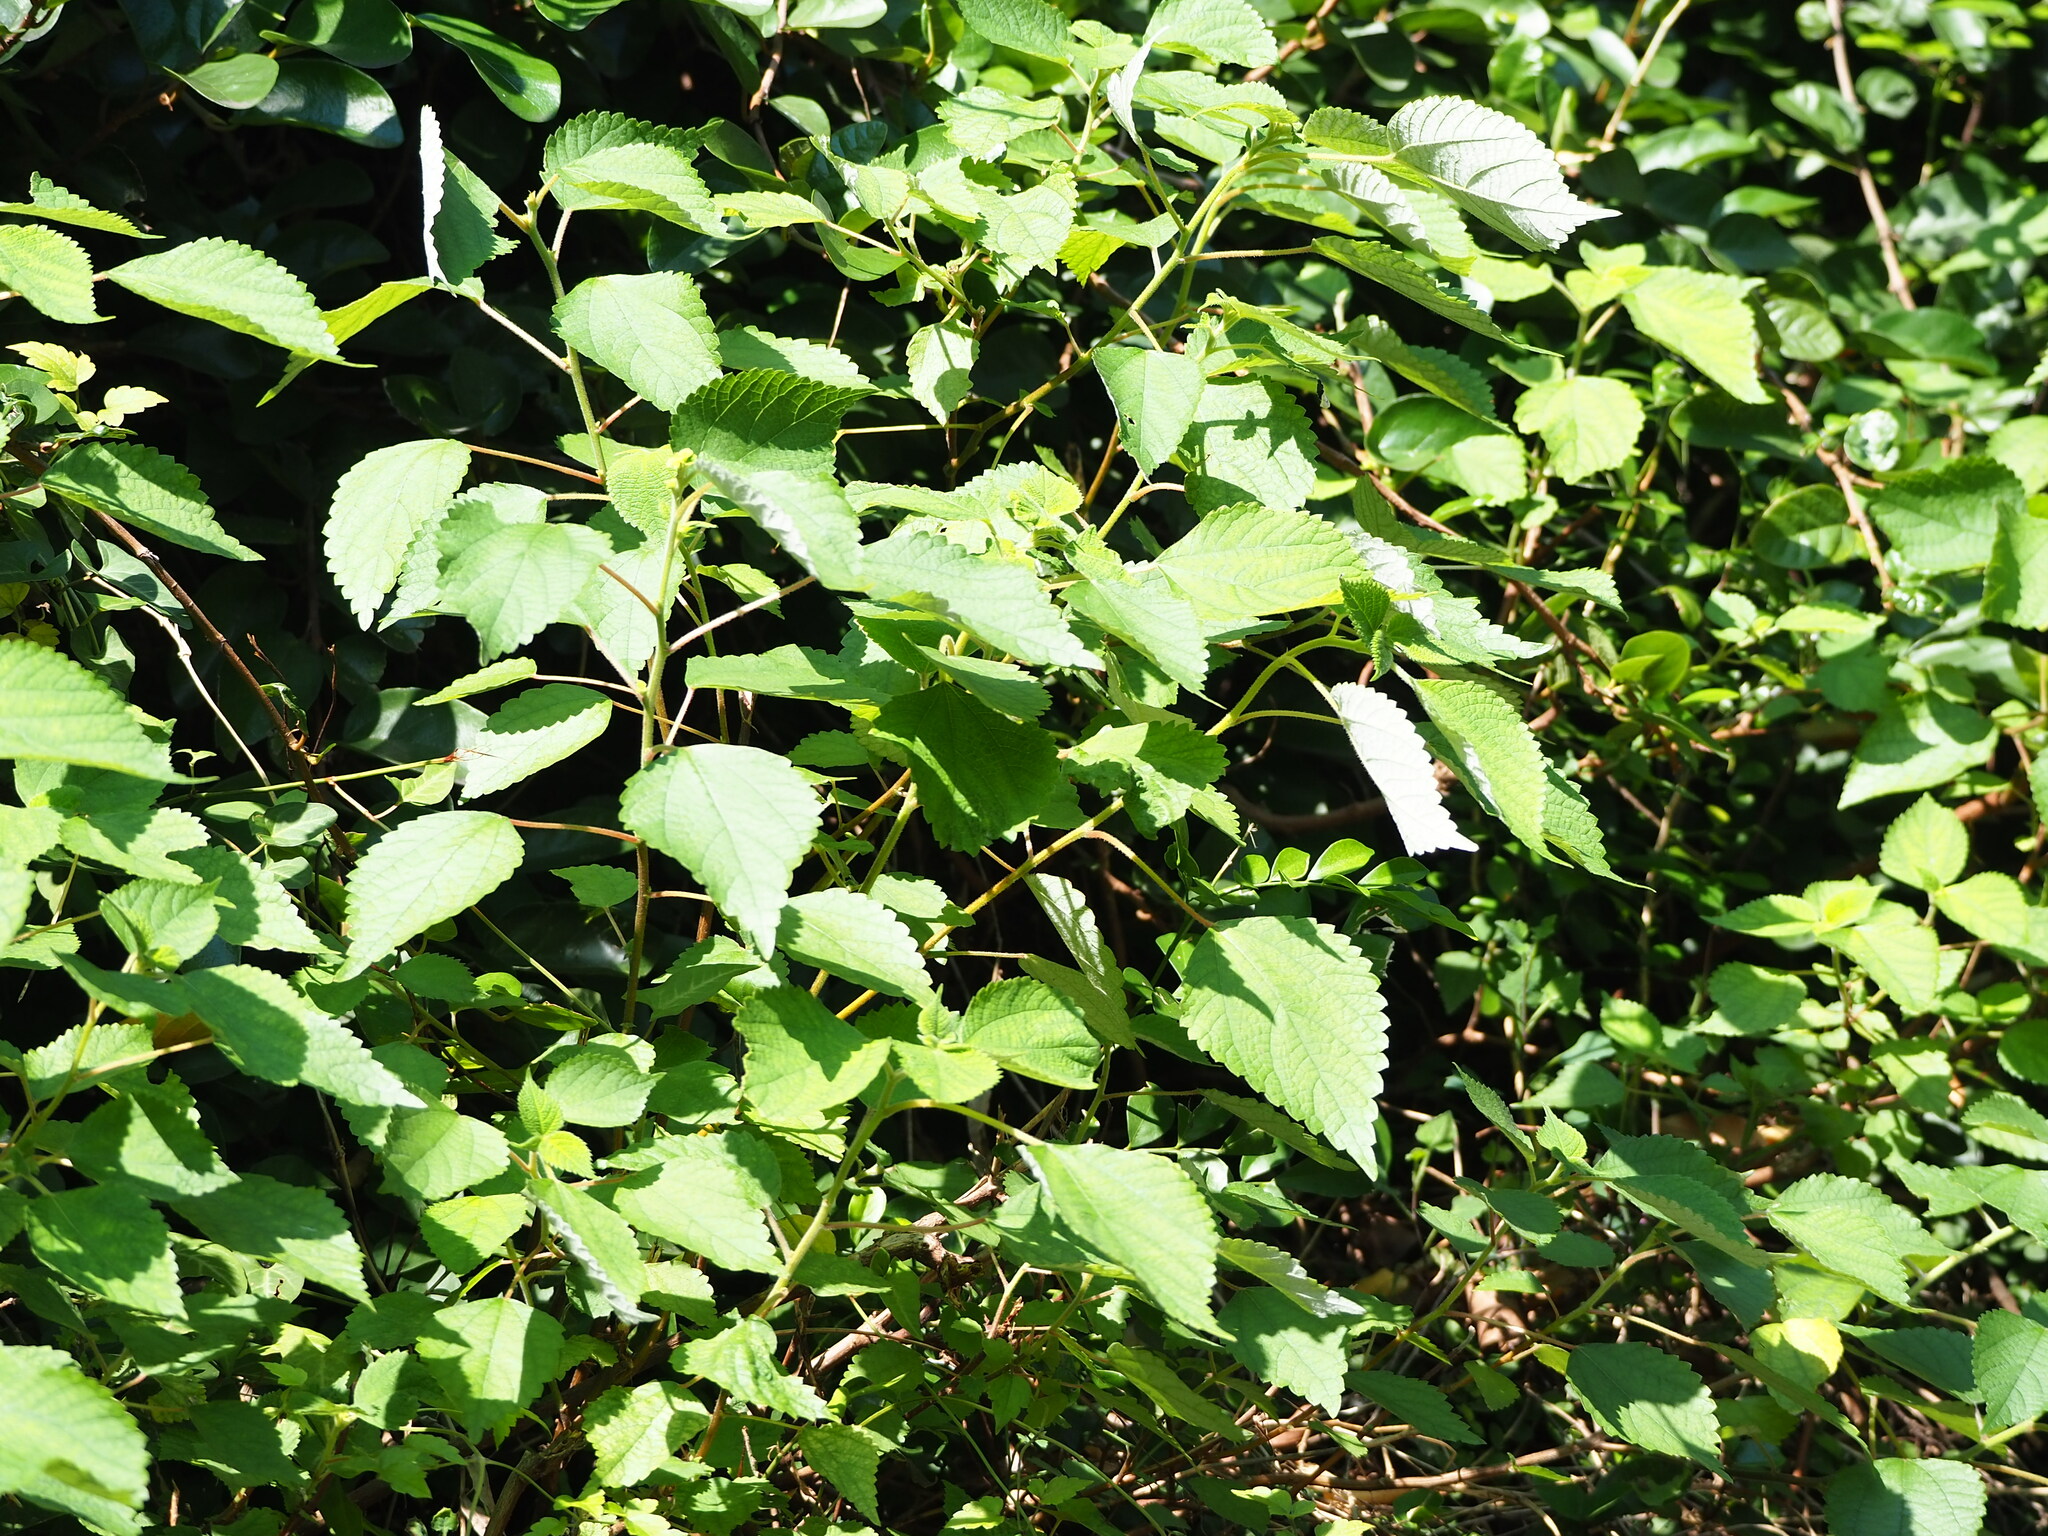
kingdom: Plantae
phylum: Tracheophyta
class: Magnoliopsida
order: Rosales
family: Urticaceae
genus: Boehmeria
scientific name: Boehmeria nivea
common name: Ramie chinese grass
